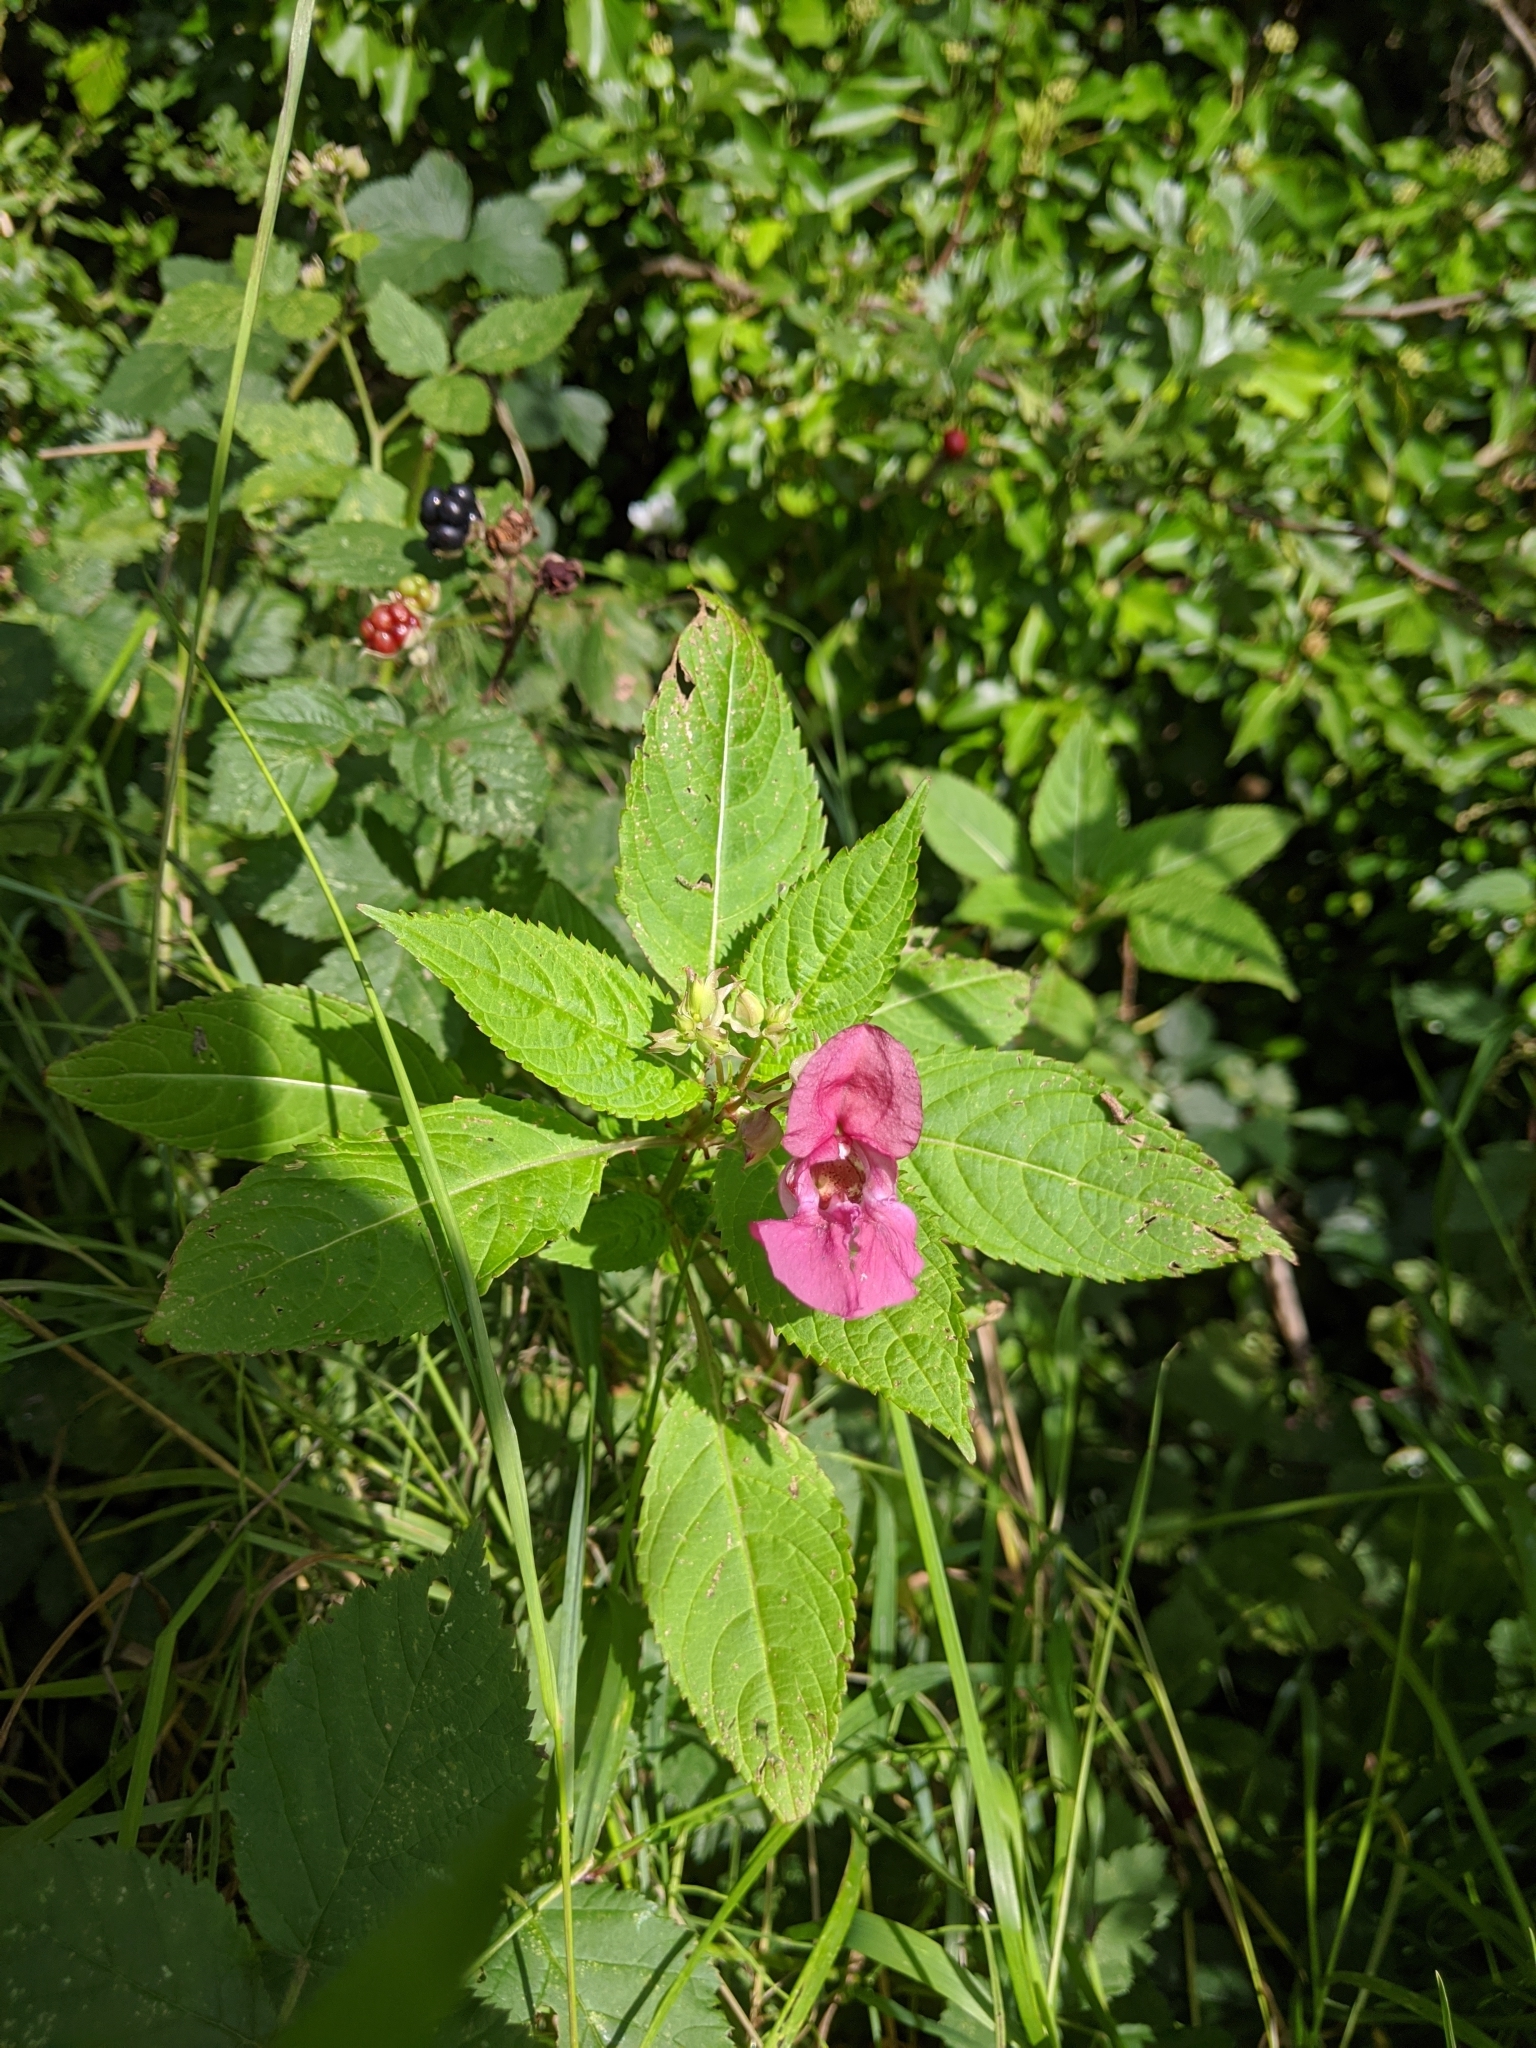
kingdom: Plantae
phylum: Tracheophyta
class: Magnoliopsida
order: Ericales
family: Balsaminaceae
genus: Impatiens
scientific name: Impatiens glandulifera
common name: Himalayan balsam
